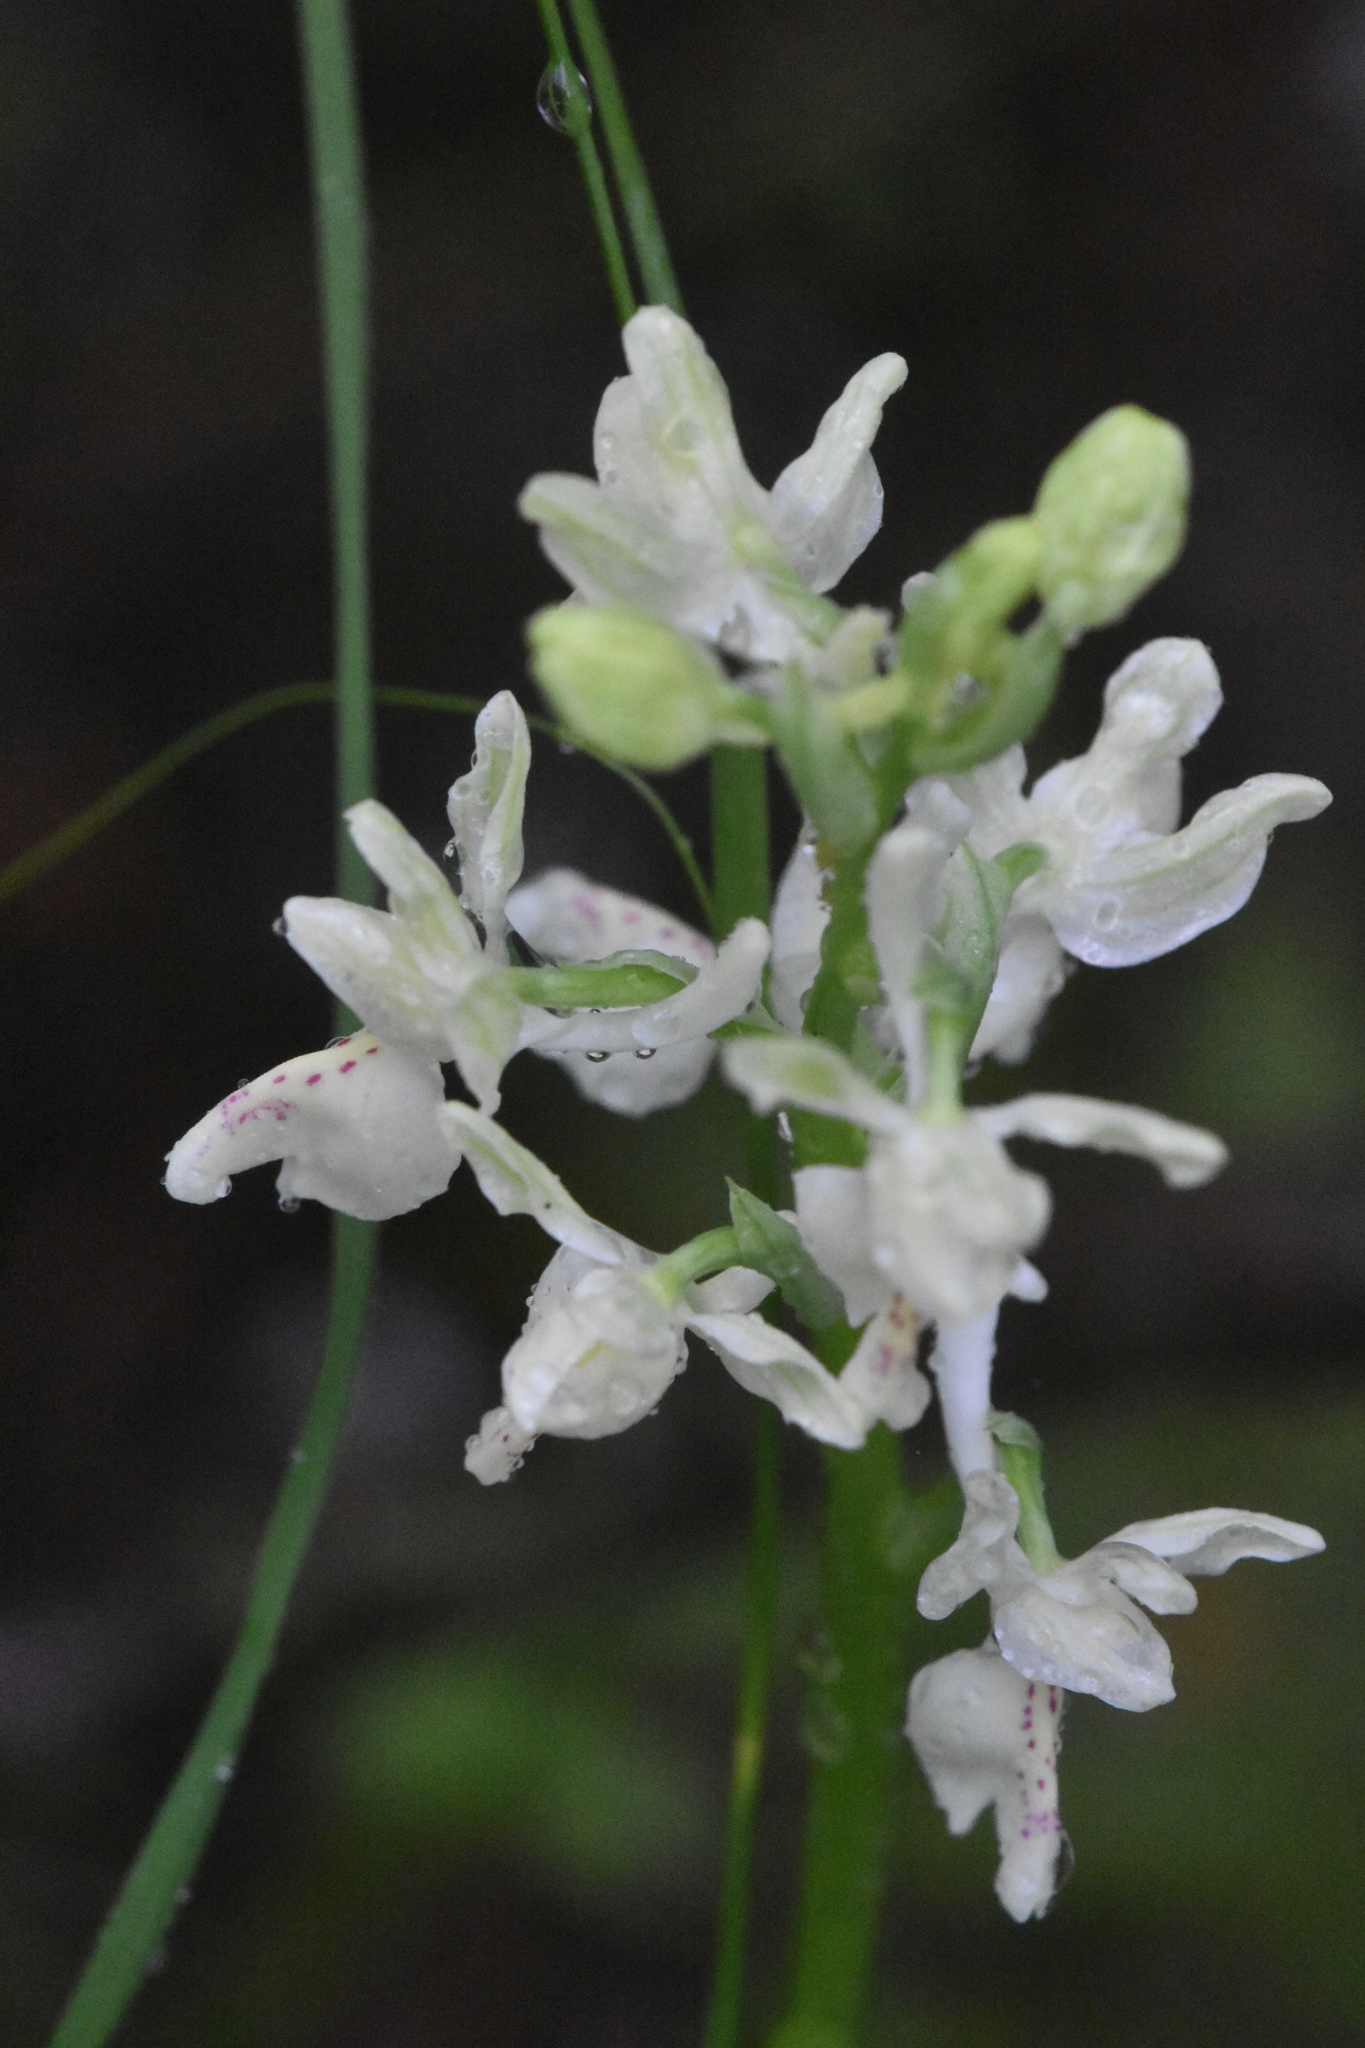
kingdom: Plantae
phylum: Tracheophyta
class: Liliopsida
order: Asparagales
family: Orchidaceae
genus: Orchis
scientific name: Orchis provincialis
